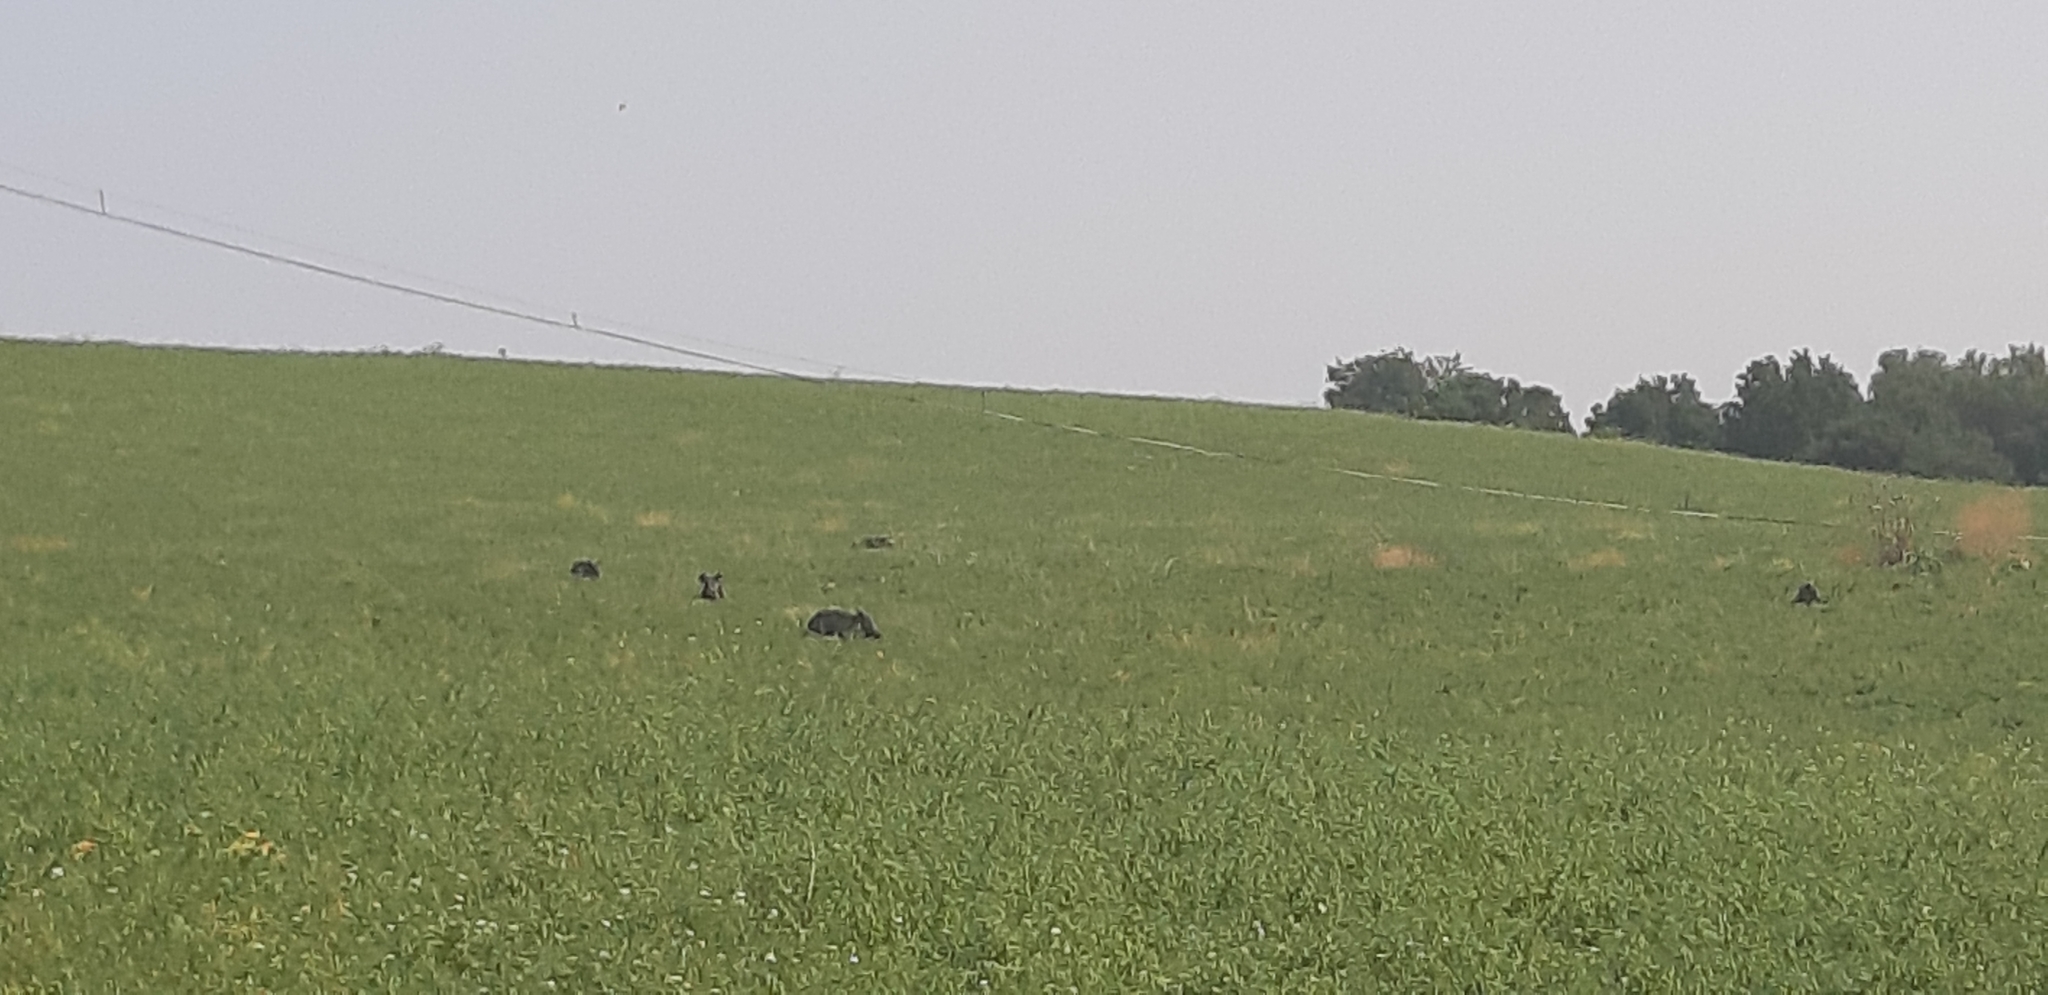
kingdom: Animalia
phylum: Chordata
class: Mammalia
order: Artiodactyla
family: Suidae
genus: Sus
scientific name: Sus scrofa
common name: Wild boar
